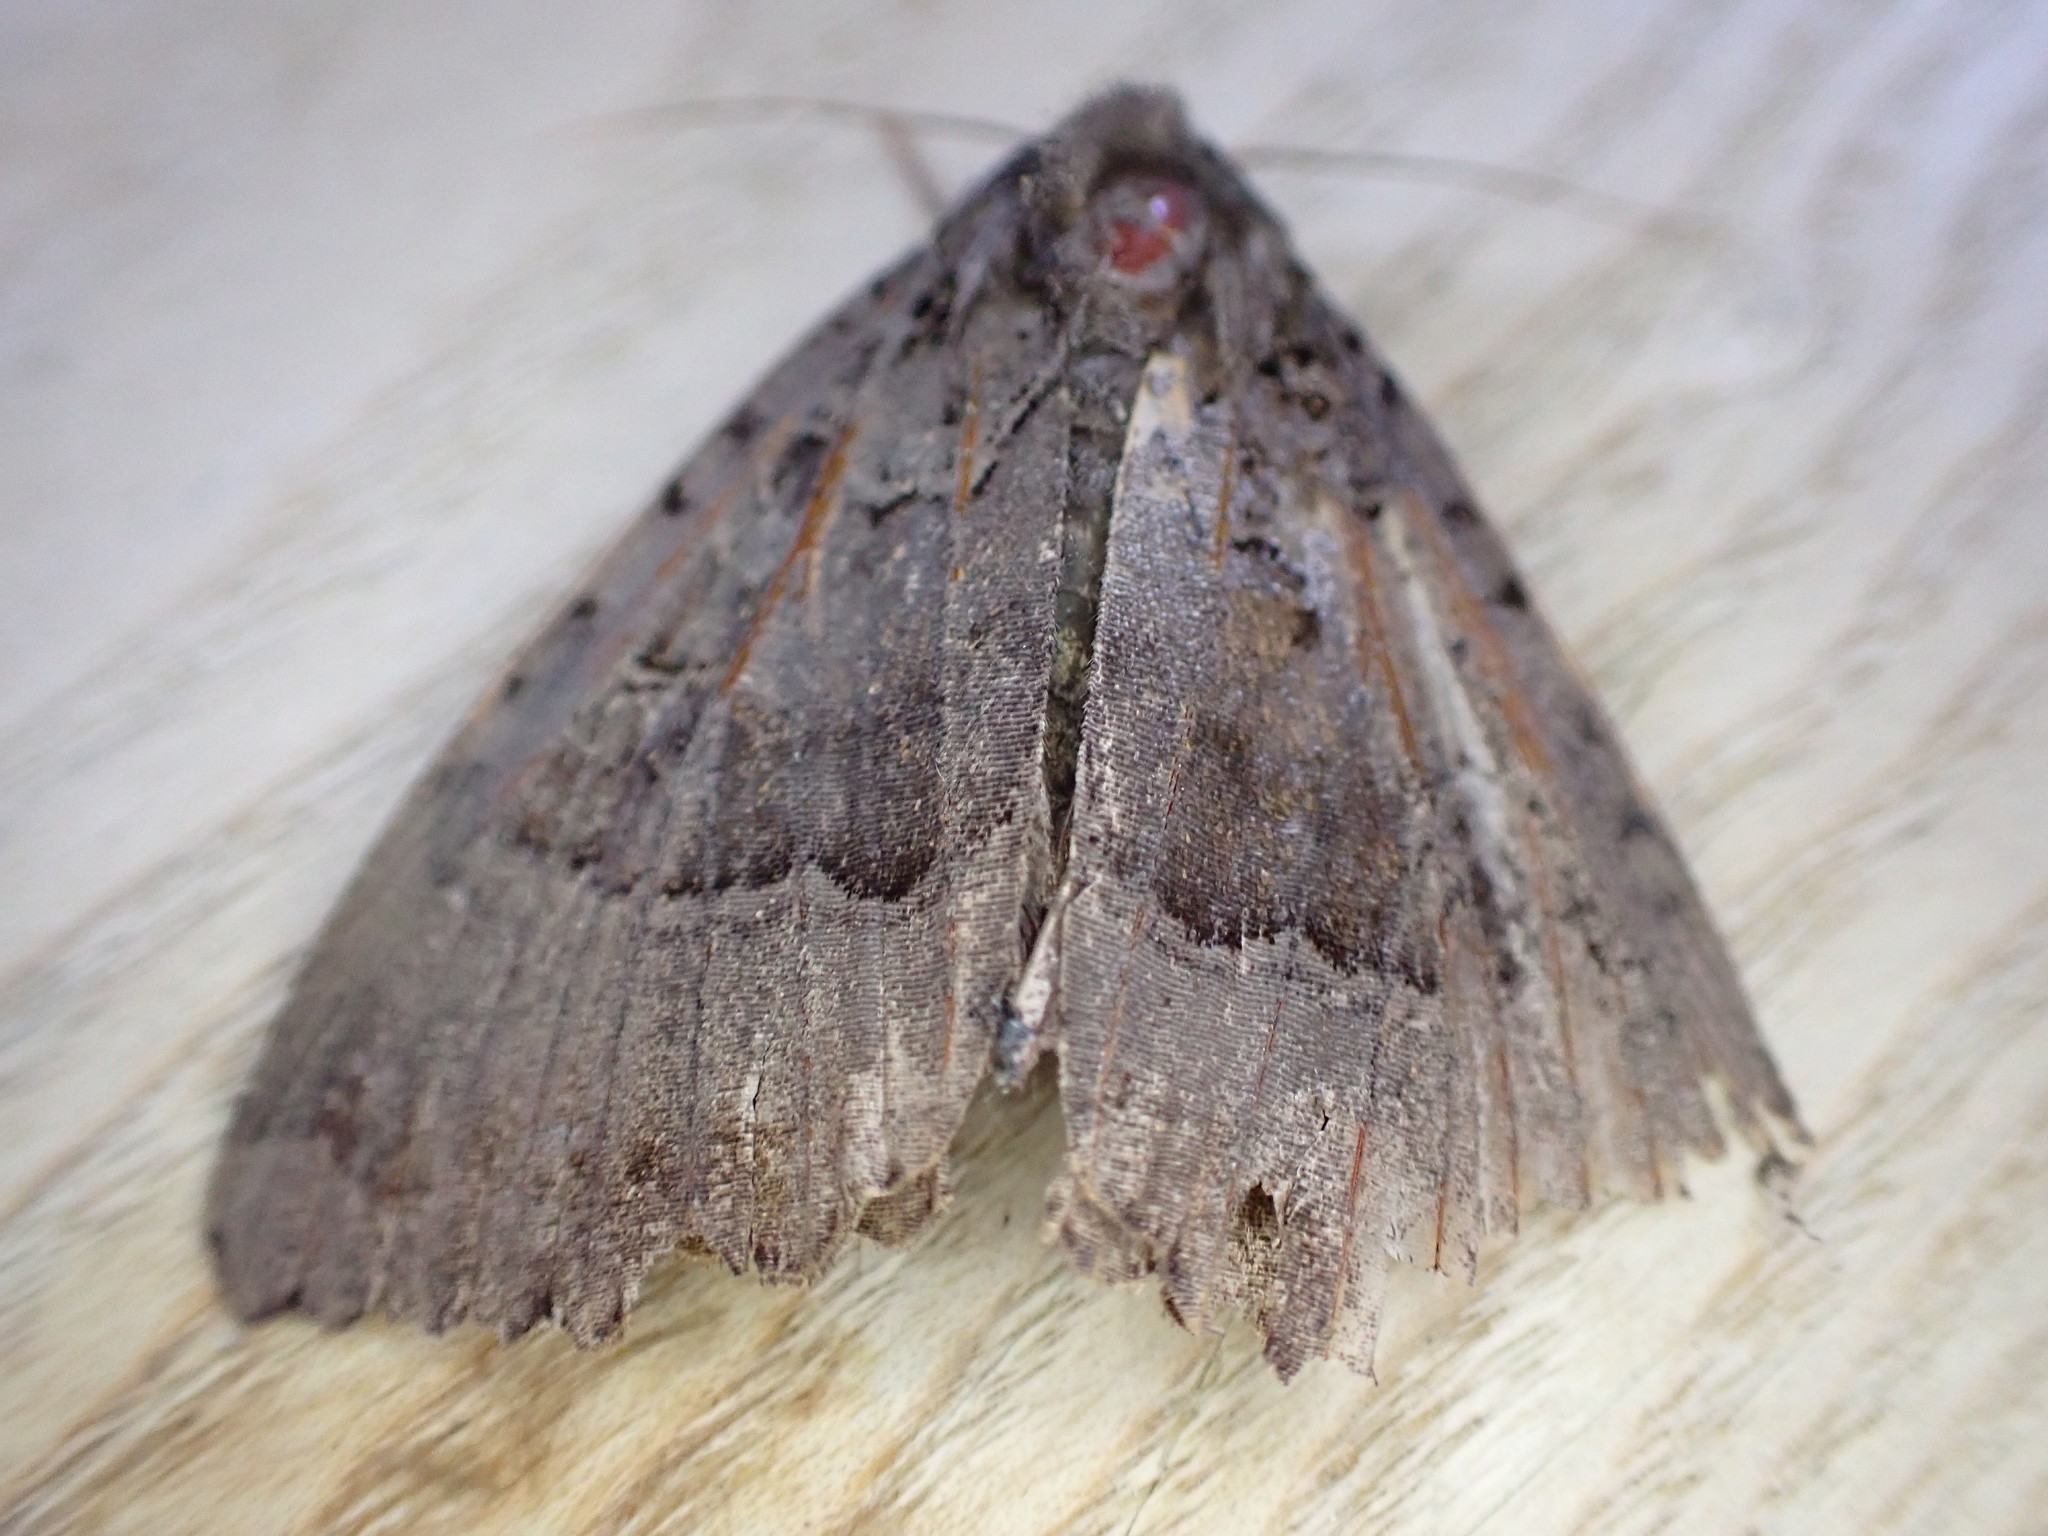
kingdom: Animalia
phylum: Arthropoda
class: Insecta
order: Lepidoptera
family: Noctuidae
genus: Mormo
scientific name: Mormo maura
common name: Old lady
